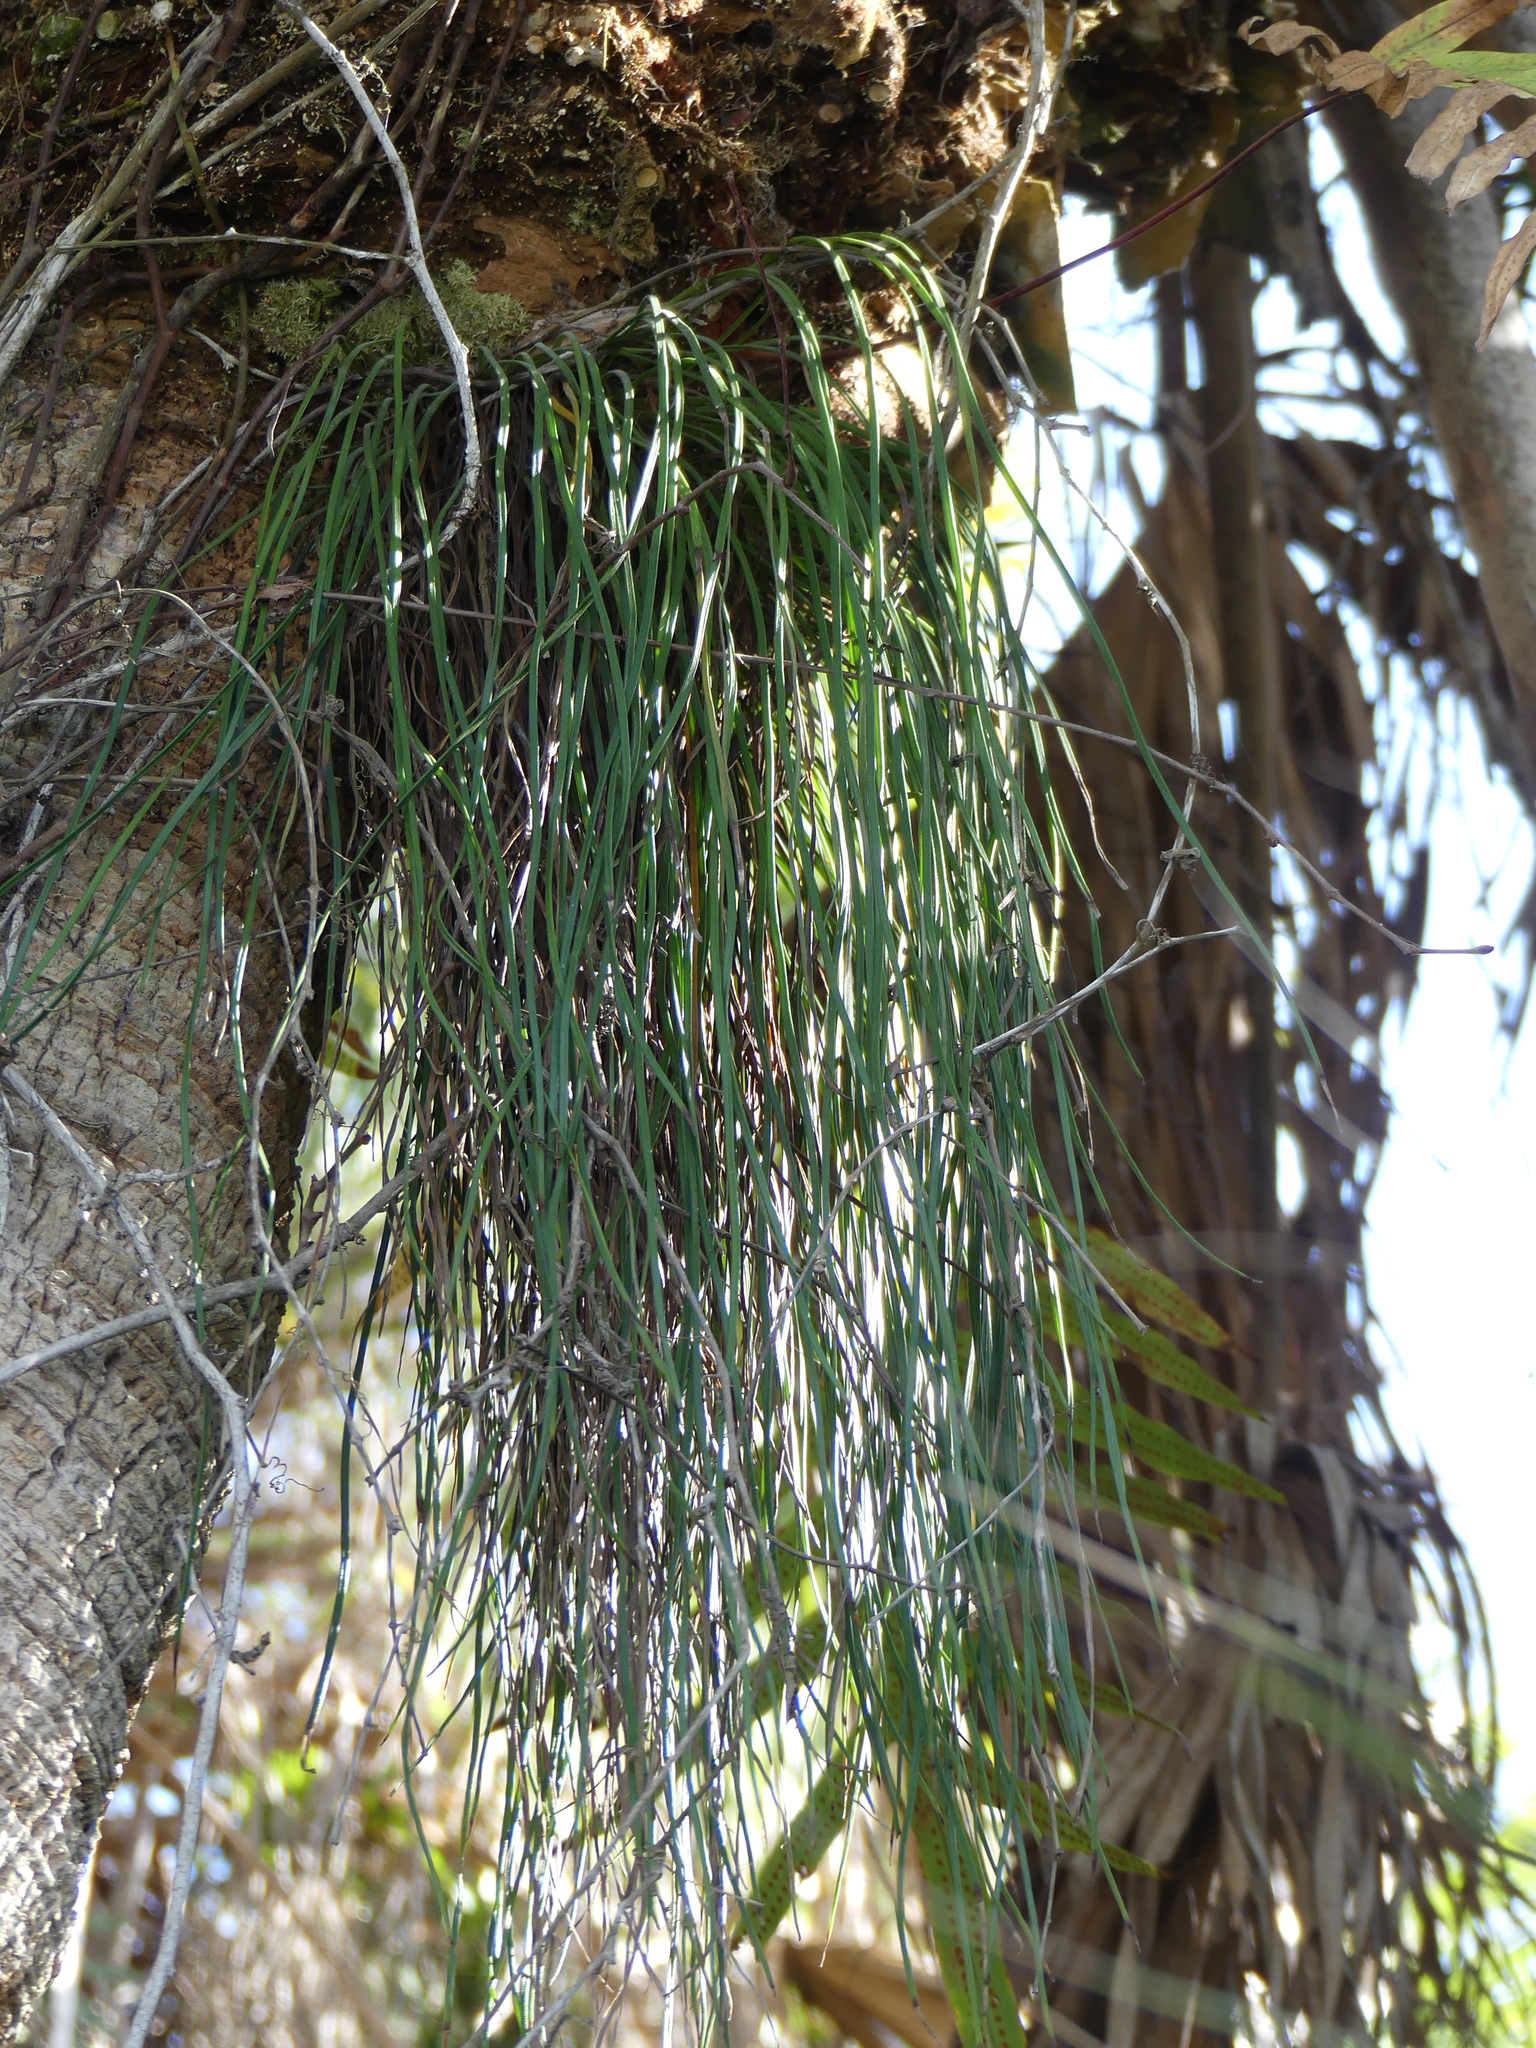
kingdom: Plantae
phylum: Tracheophyta
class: Polypodiopsida
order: Polypodiales
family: Pteridaceae
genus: Vittaria
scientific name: Vittaria lineata
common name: Shoestring fern
